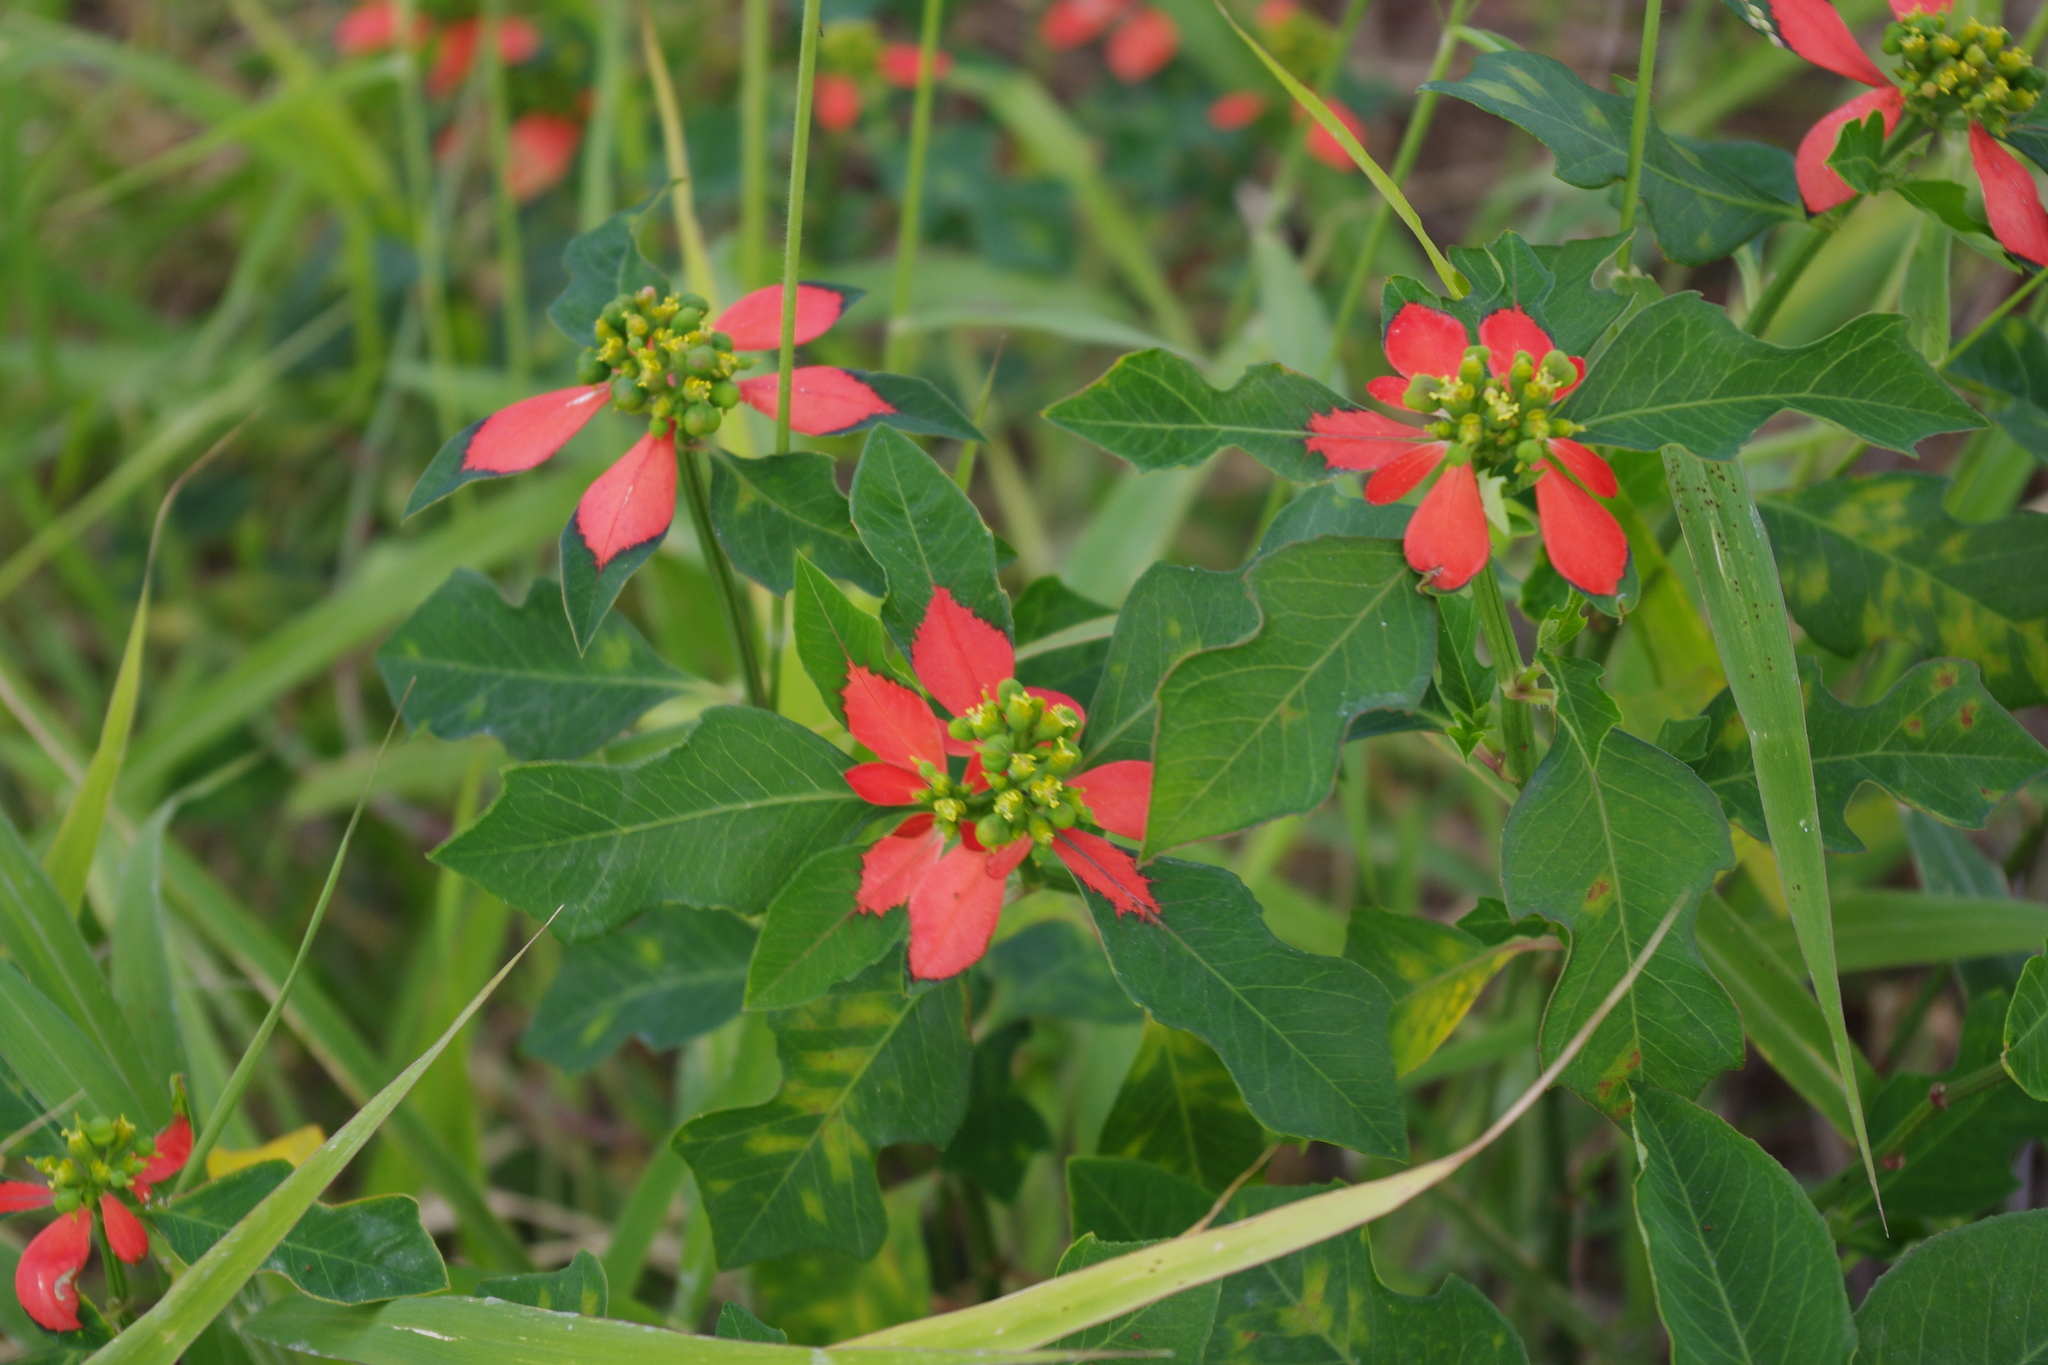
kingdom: Plantae
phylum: Tracheophyta
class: Magnoliopsida
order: Malpighiales
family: Euphorbiaceae
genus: Euphorbia
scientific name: Euphorbia heterophylla
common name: Mexican fireplant
